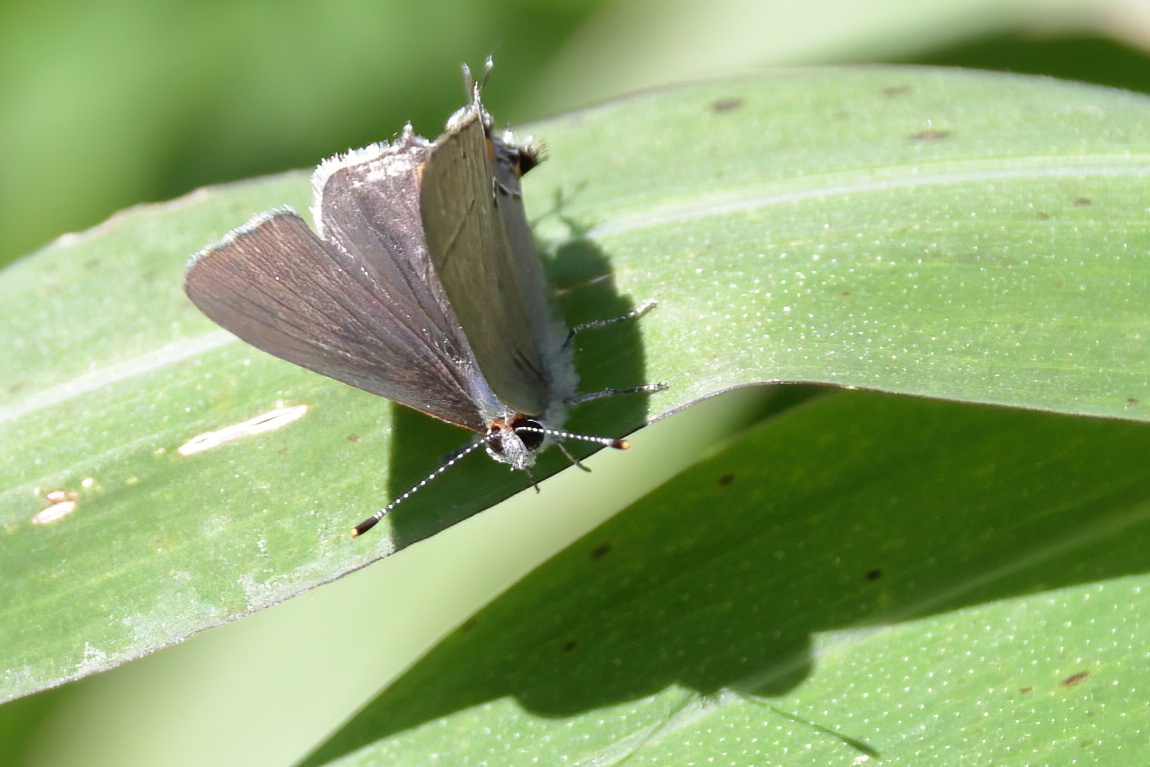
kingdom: Animalia
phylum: Arthropoda
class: Insecta
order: Lepidoptera
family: Lycaenidae
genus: Strymon
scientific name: Strymon melinus
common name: Gray hairstreak
